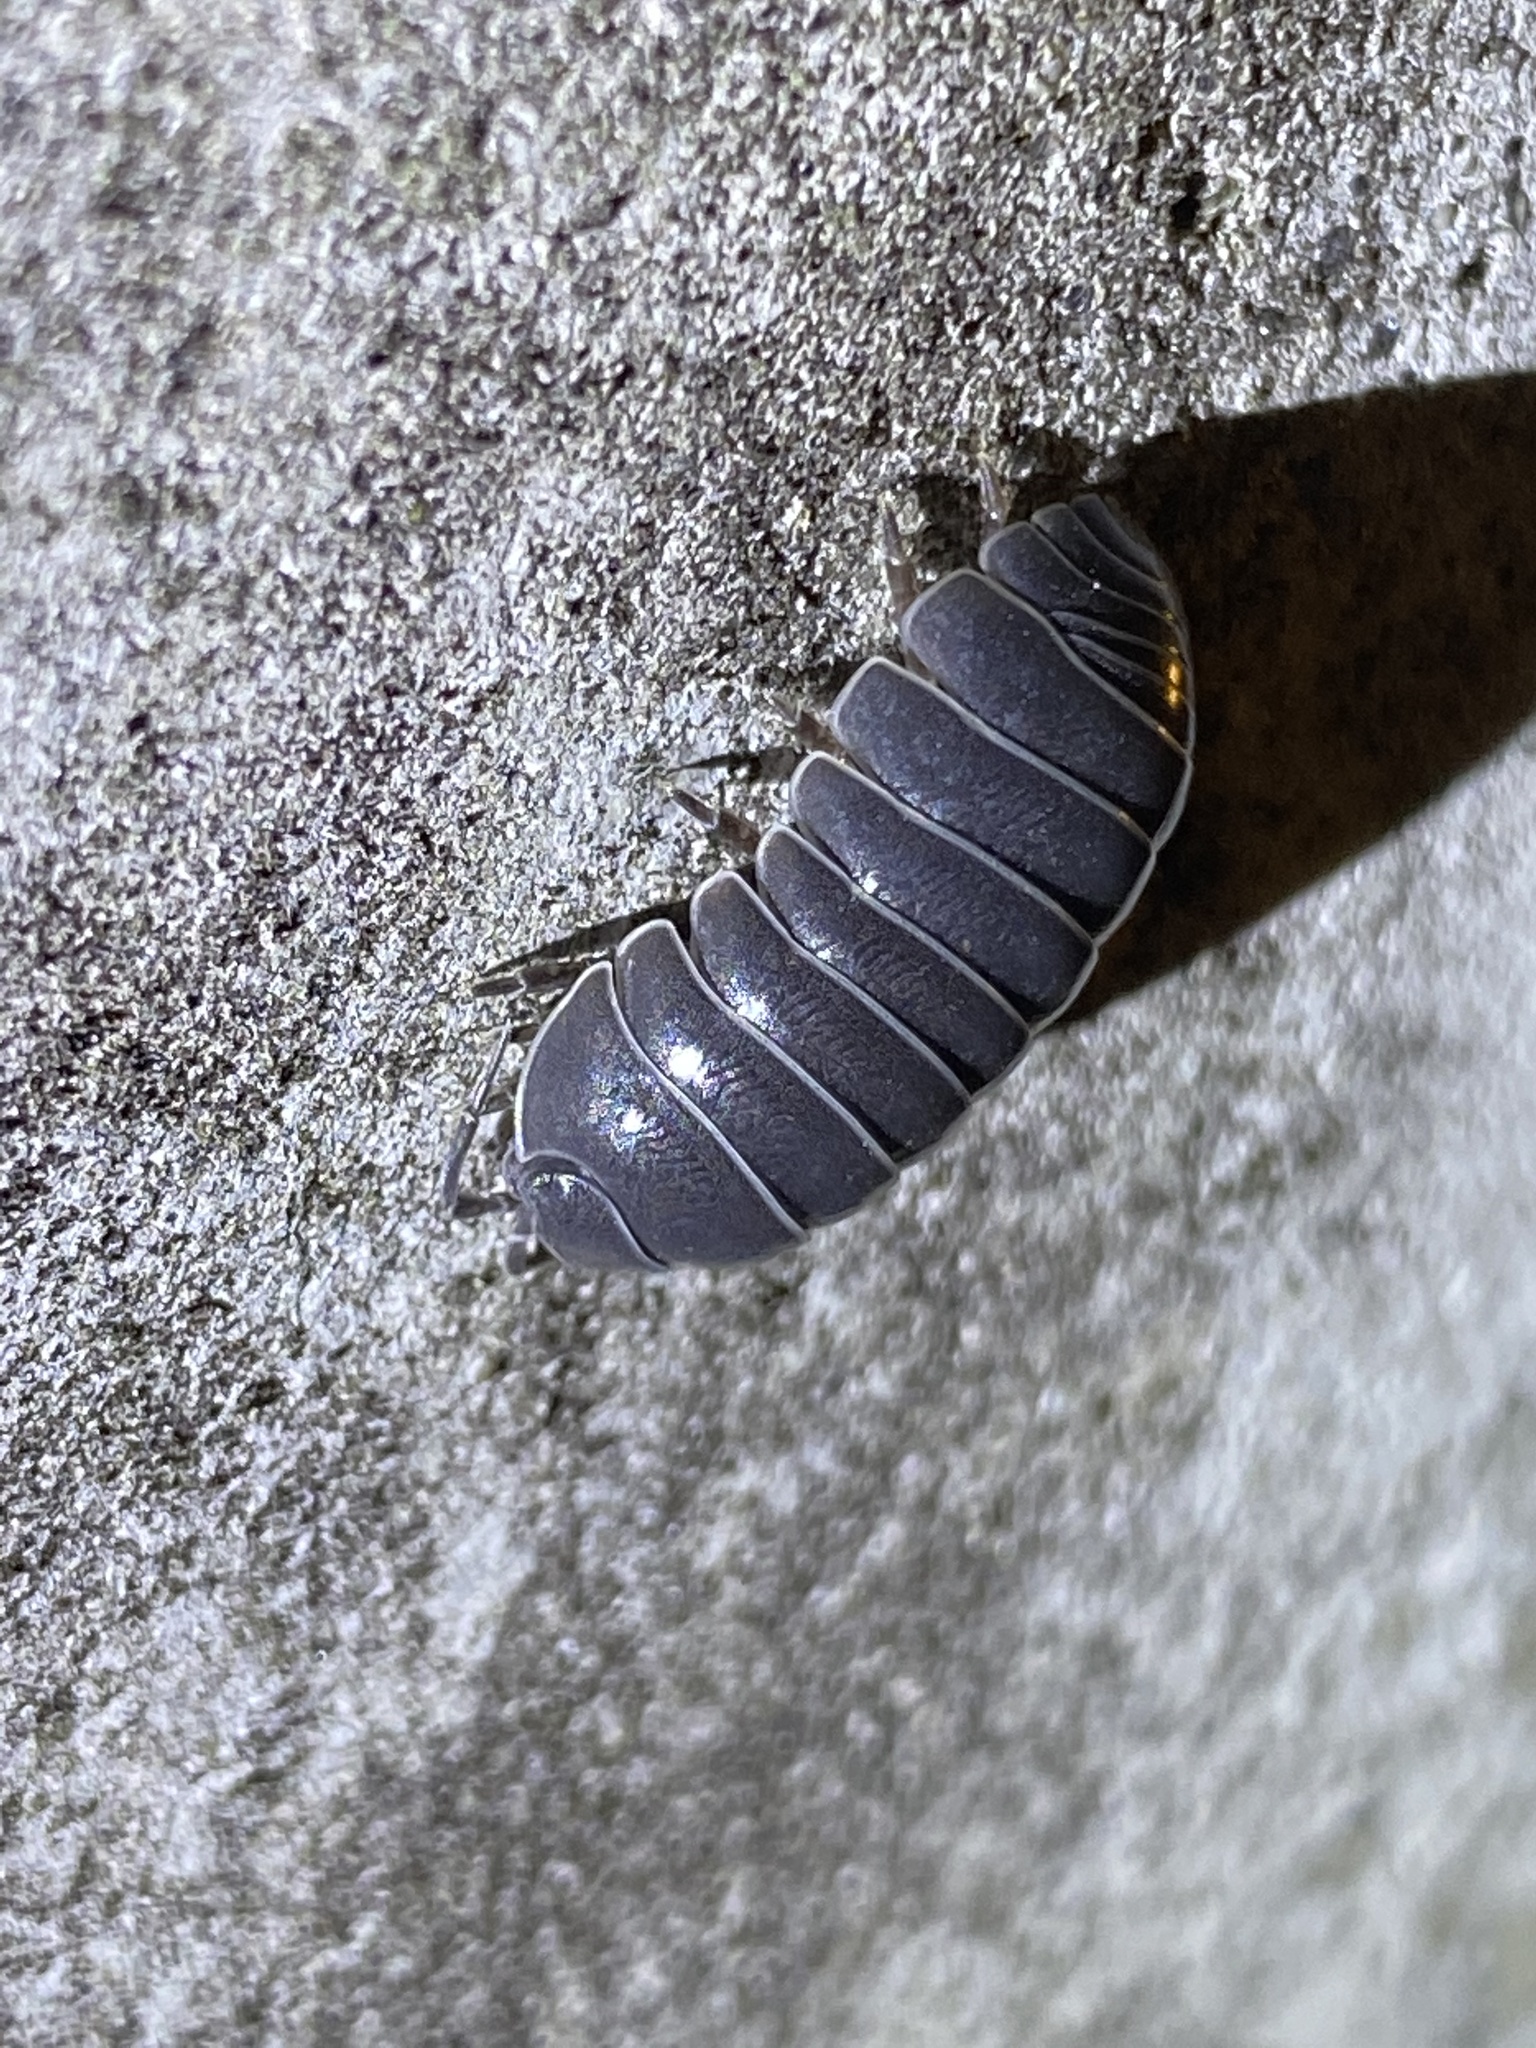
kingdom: Animalia
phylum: Arthropoda
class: Malacostraca
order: Isopoda
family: Armadillidiidae
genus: Armadillidium
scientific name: Armadillidium vulgare
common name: Common pill woodlouse
